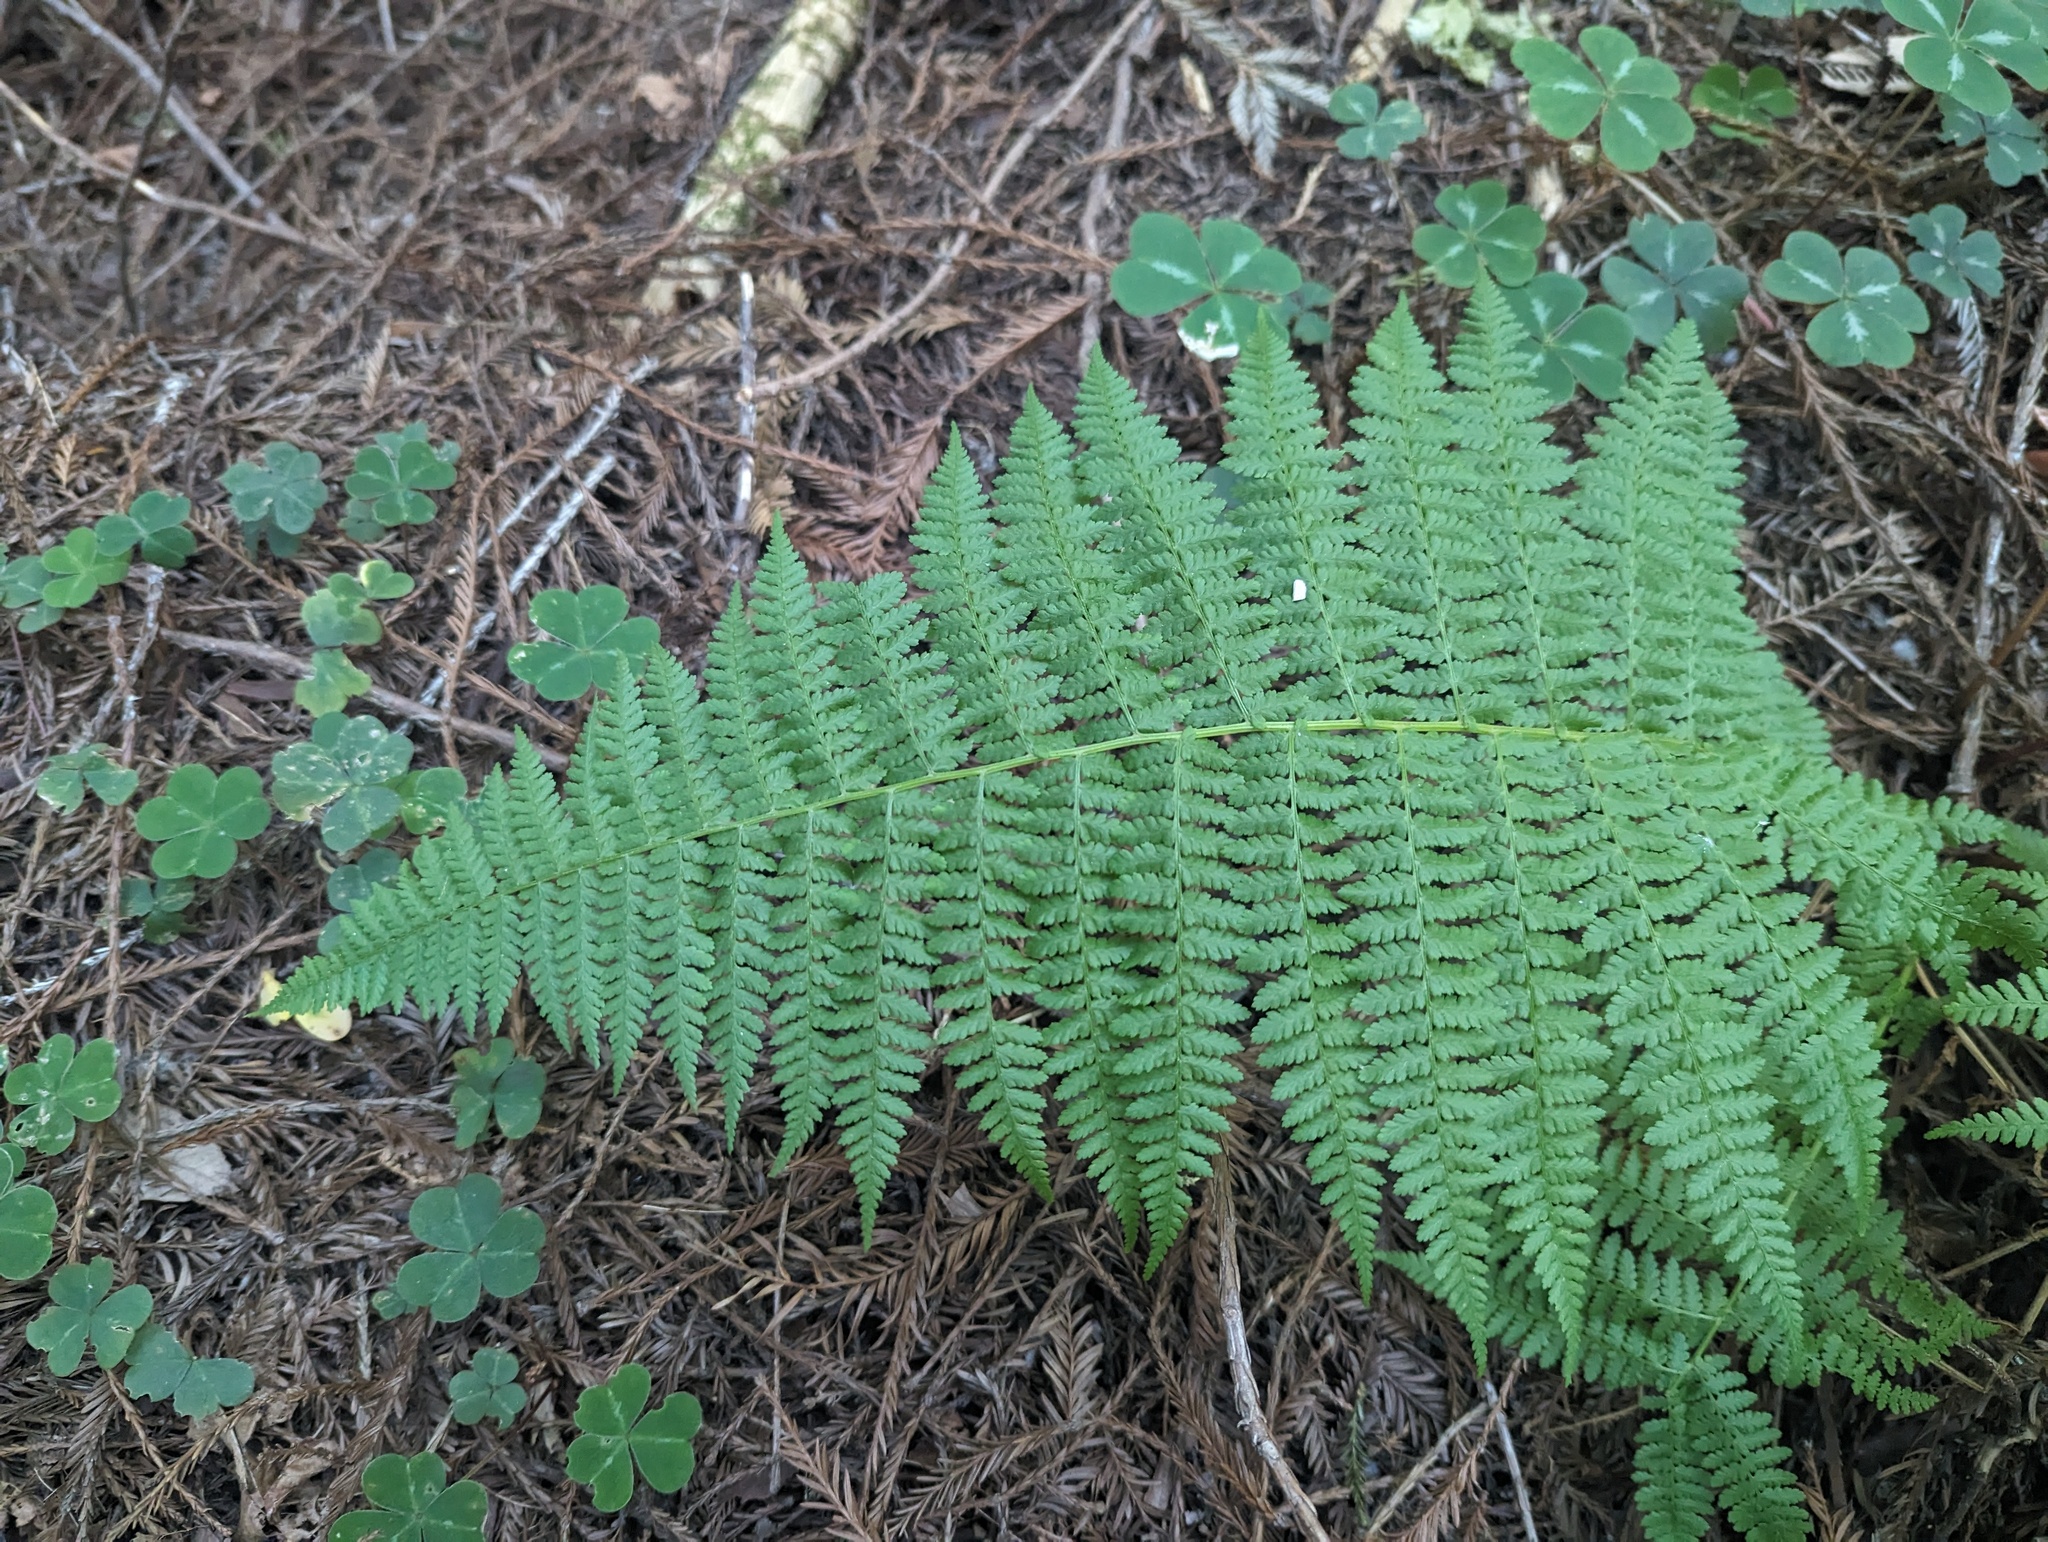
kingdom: Plantae
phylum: Tracheophyta
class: Polypodiopsida
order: Polypodiales
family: Athyriaceae
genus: Athyrium
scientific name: Athyrium filix-femina
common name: Lady fern
